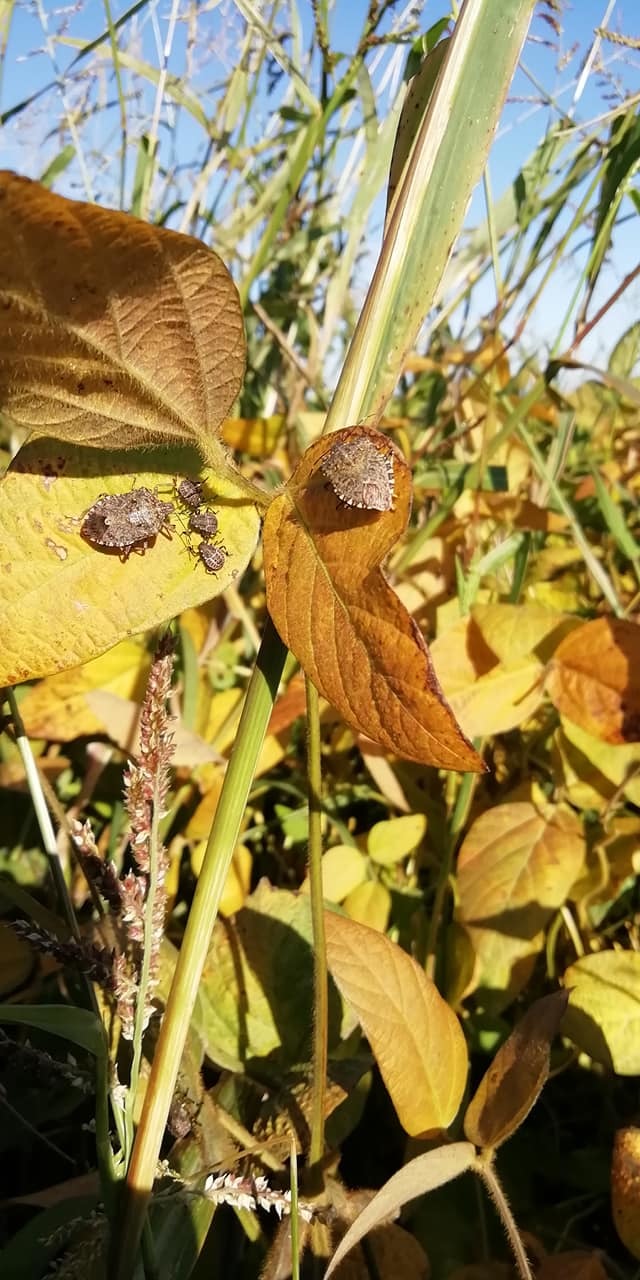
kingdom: Animalia
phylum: Arthropoda
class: Insecta
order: Hemiptera
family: Pentatomidae
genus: Halyomorpha
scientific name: Halyomorpha halys
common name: Brown marmorated stink bug
